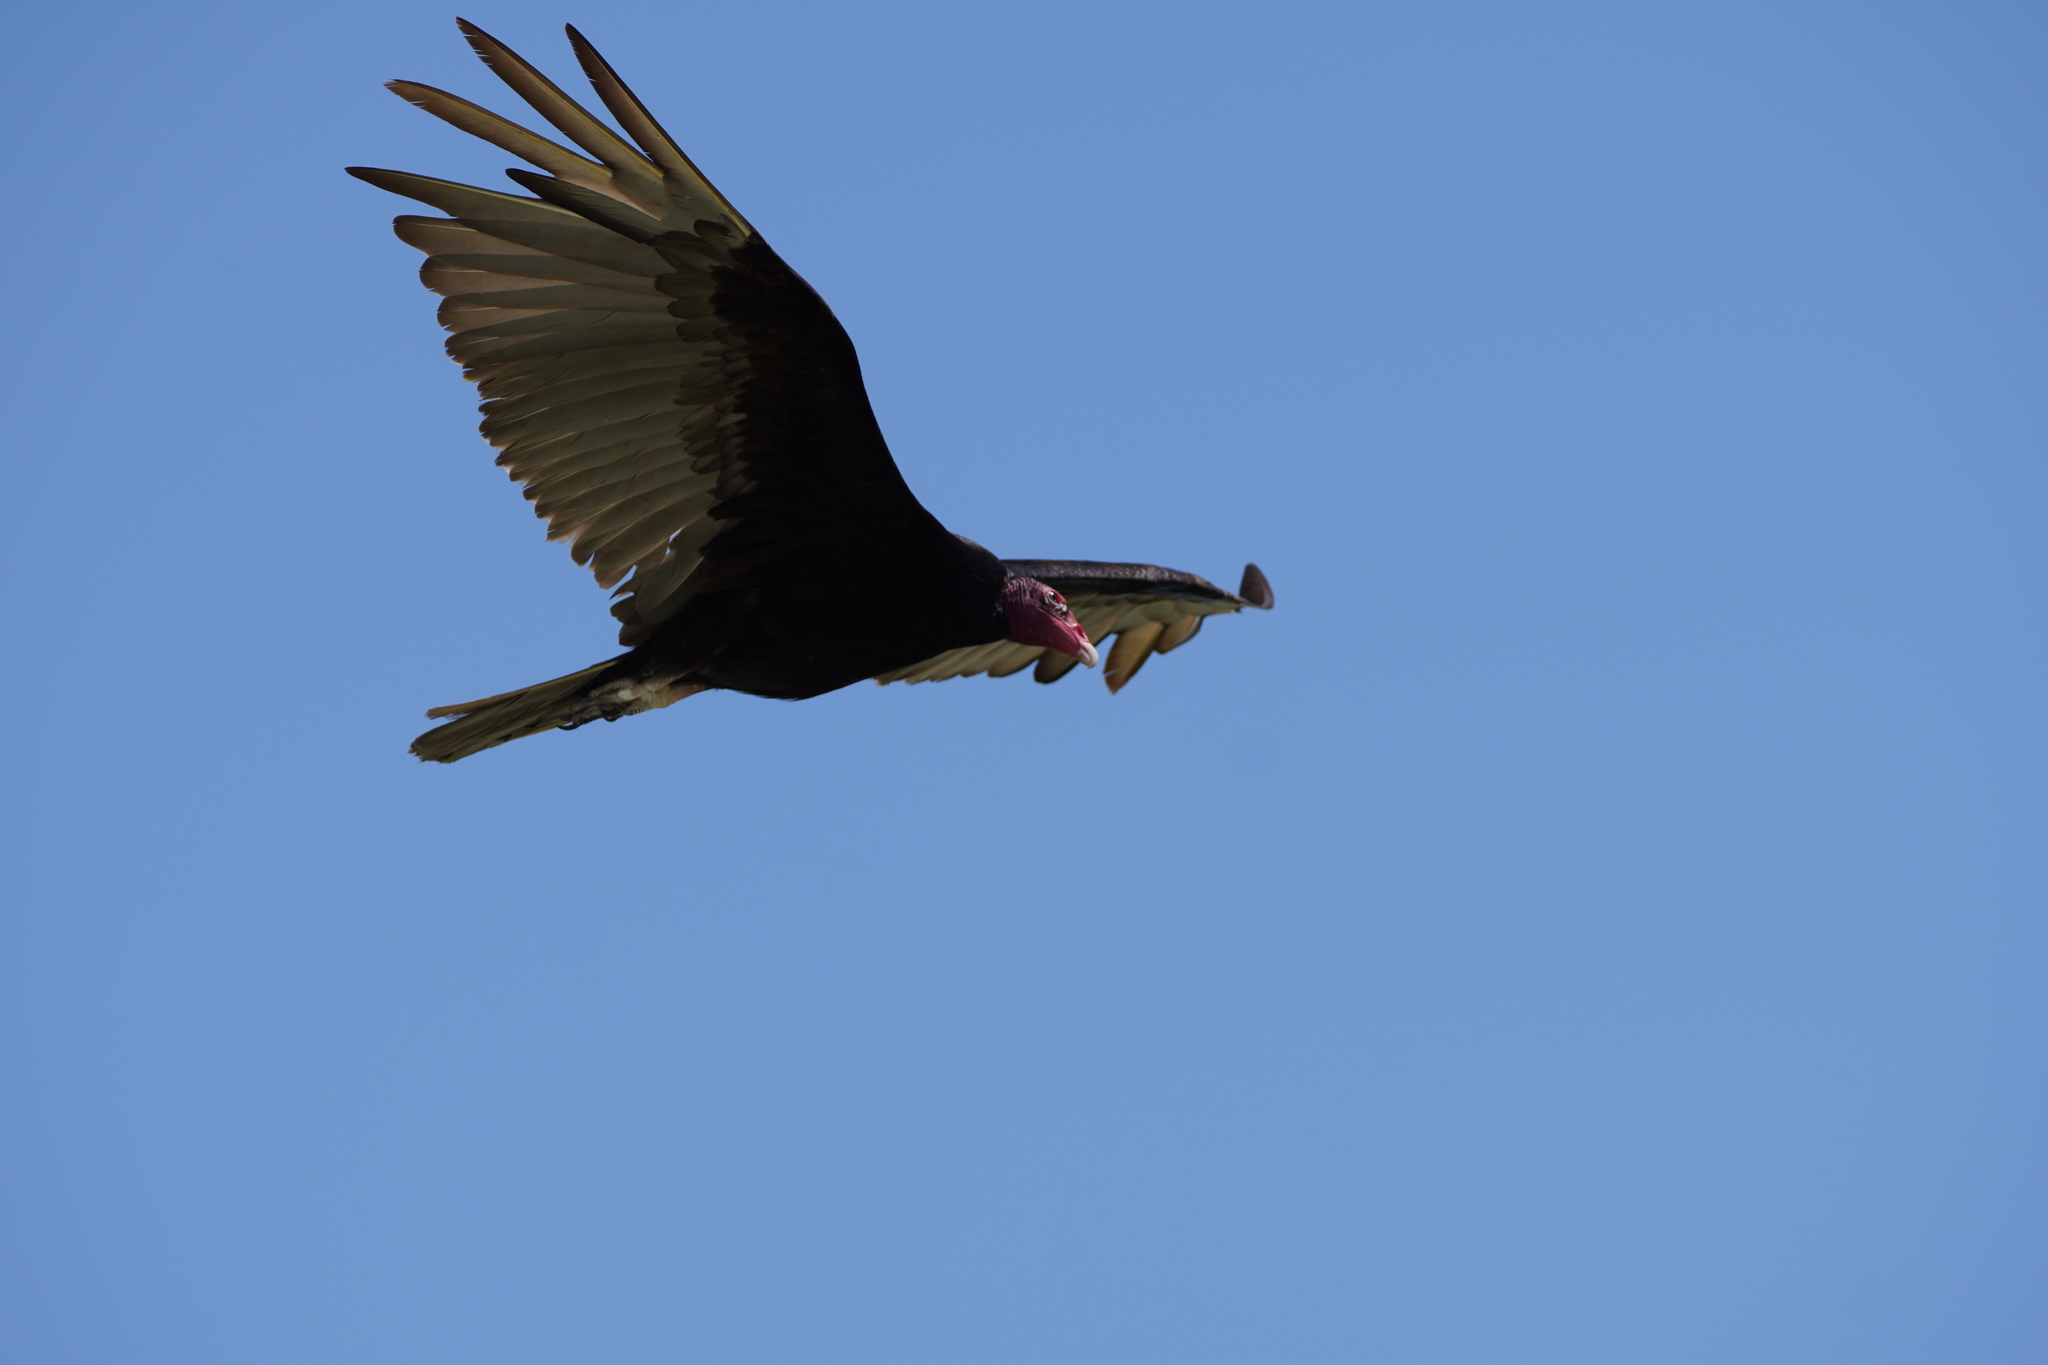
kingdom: Animalia
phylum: Chordata
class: Aves
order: Accipitriformes
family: Cathartidae
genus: Cathartes
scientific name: Cathartes aura
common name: Turkey vulture
